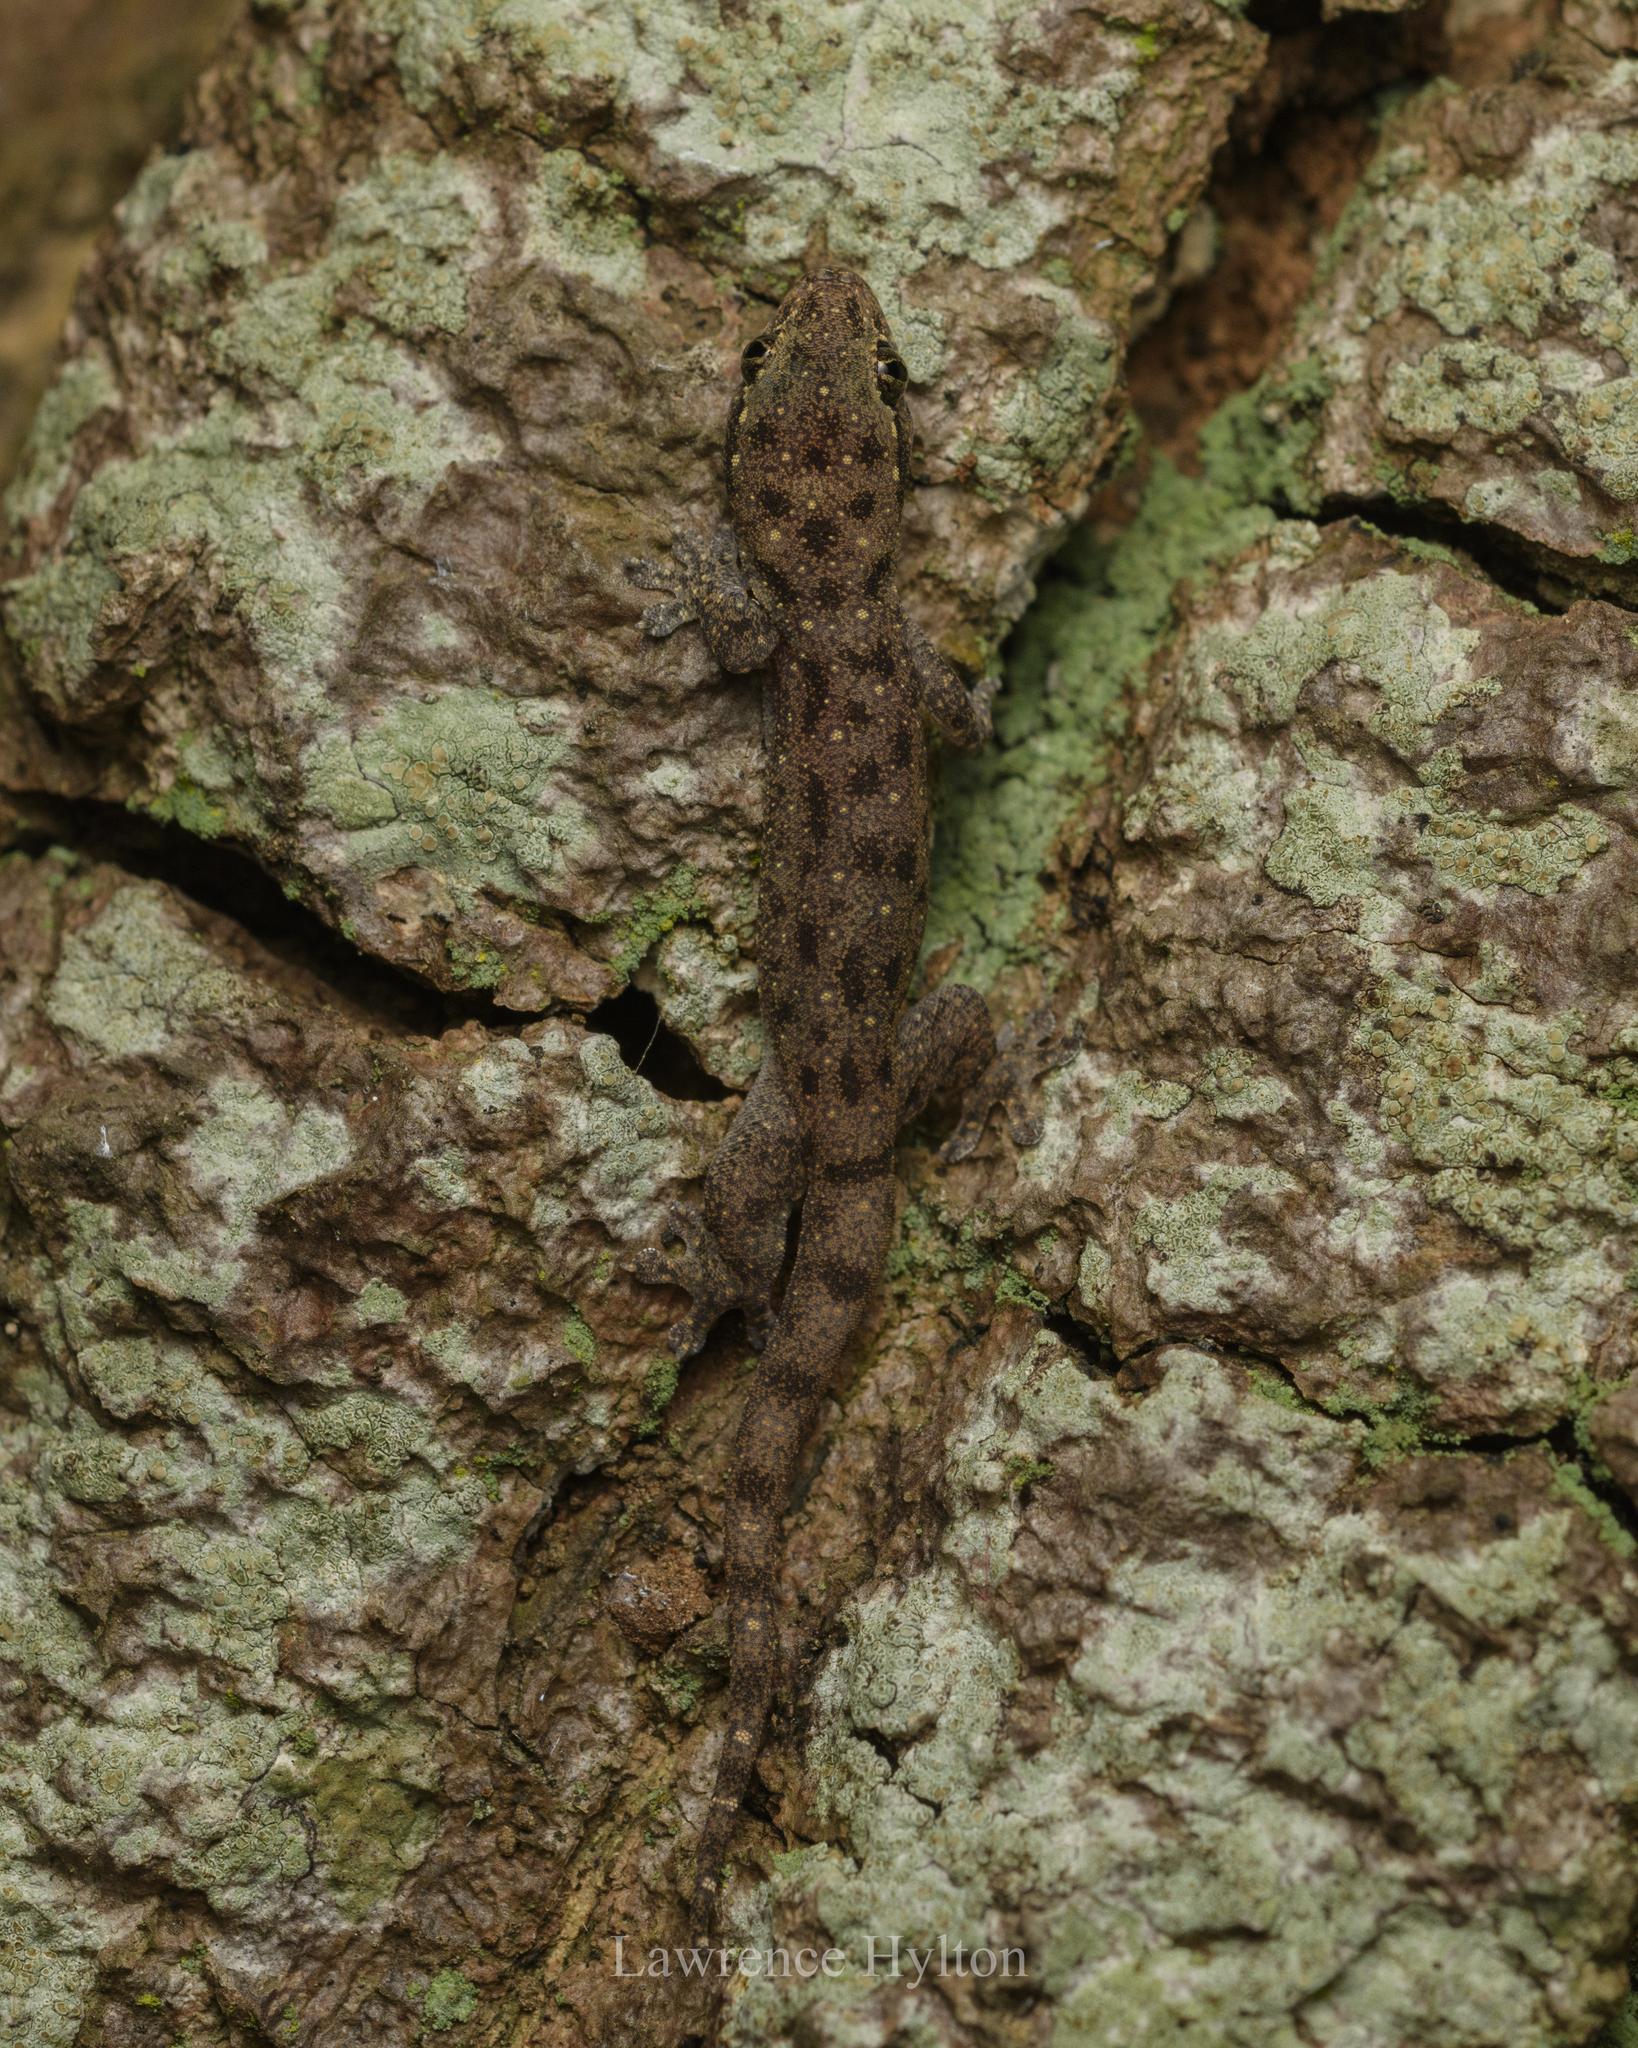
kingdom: Animalia
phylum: Chordata
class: Squamata
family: Gekkonidae
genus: Gehyra
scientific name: Gehyra mutilata
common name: Stump-toed gecko
